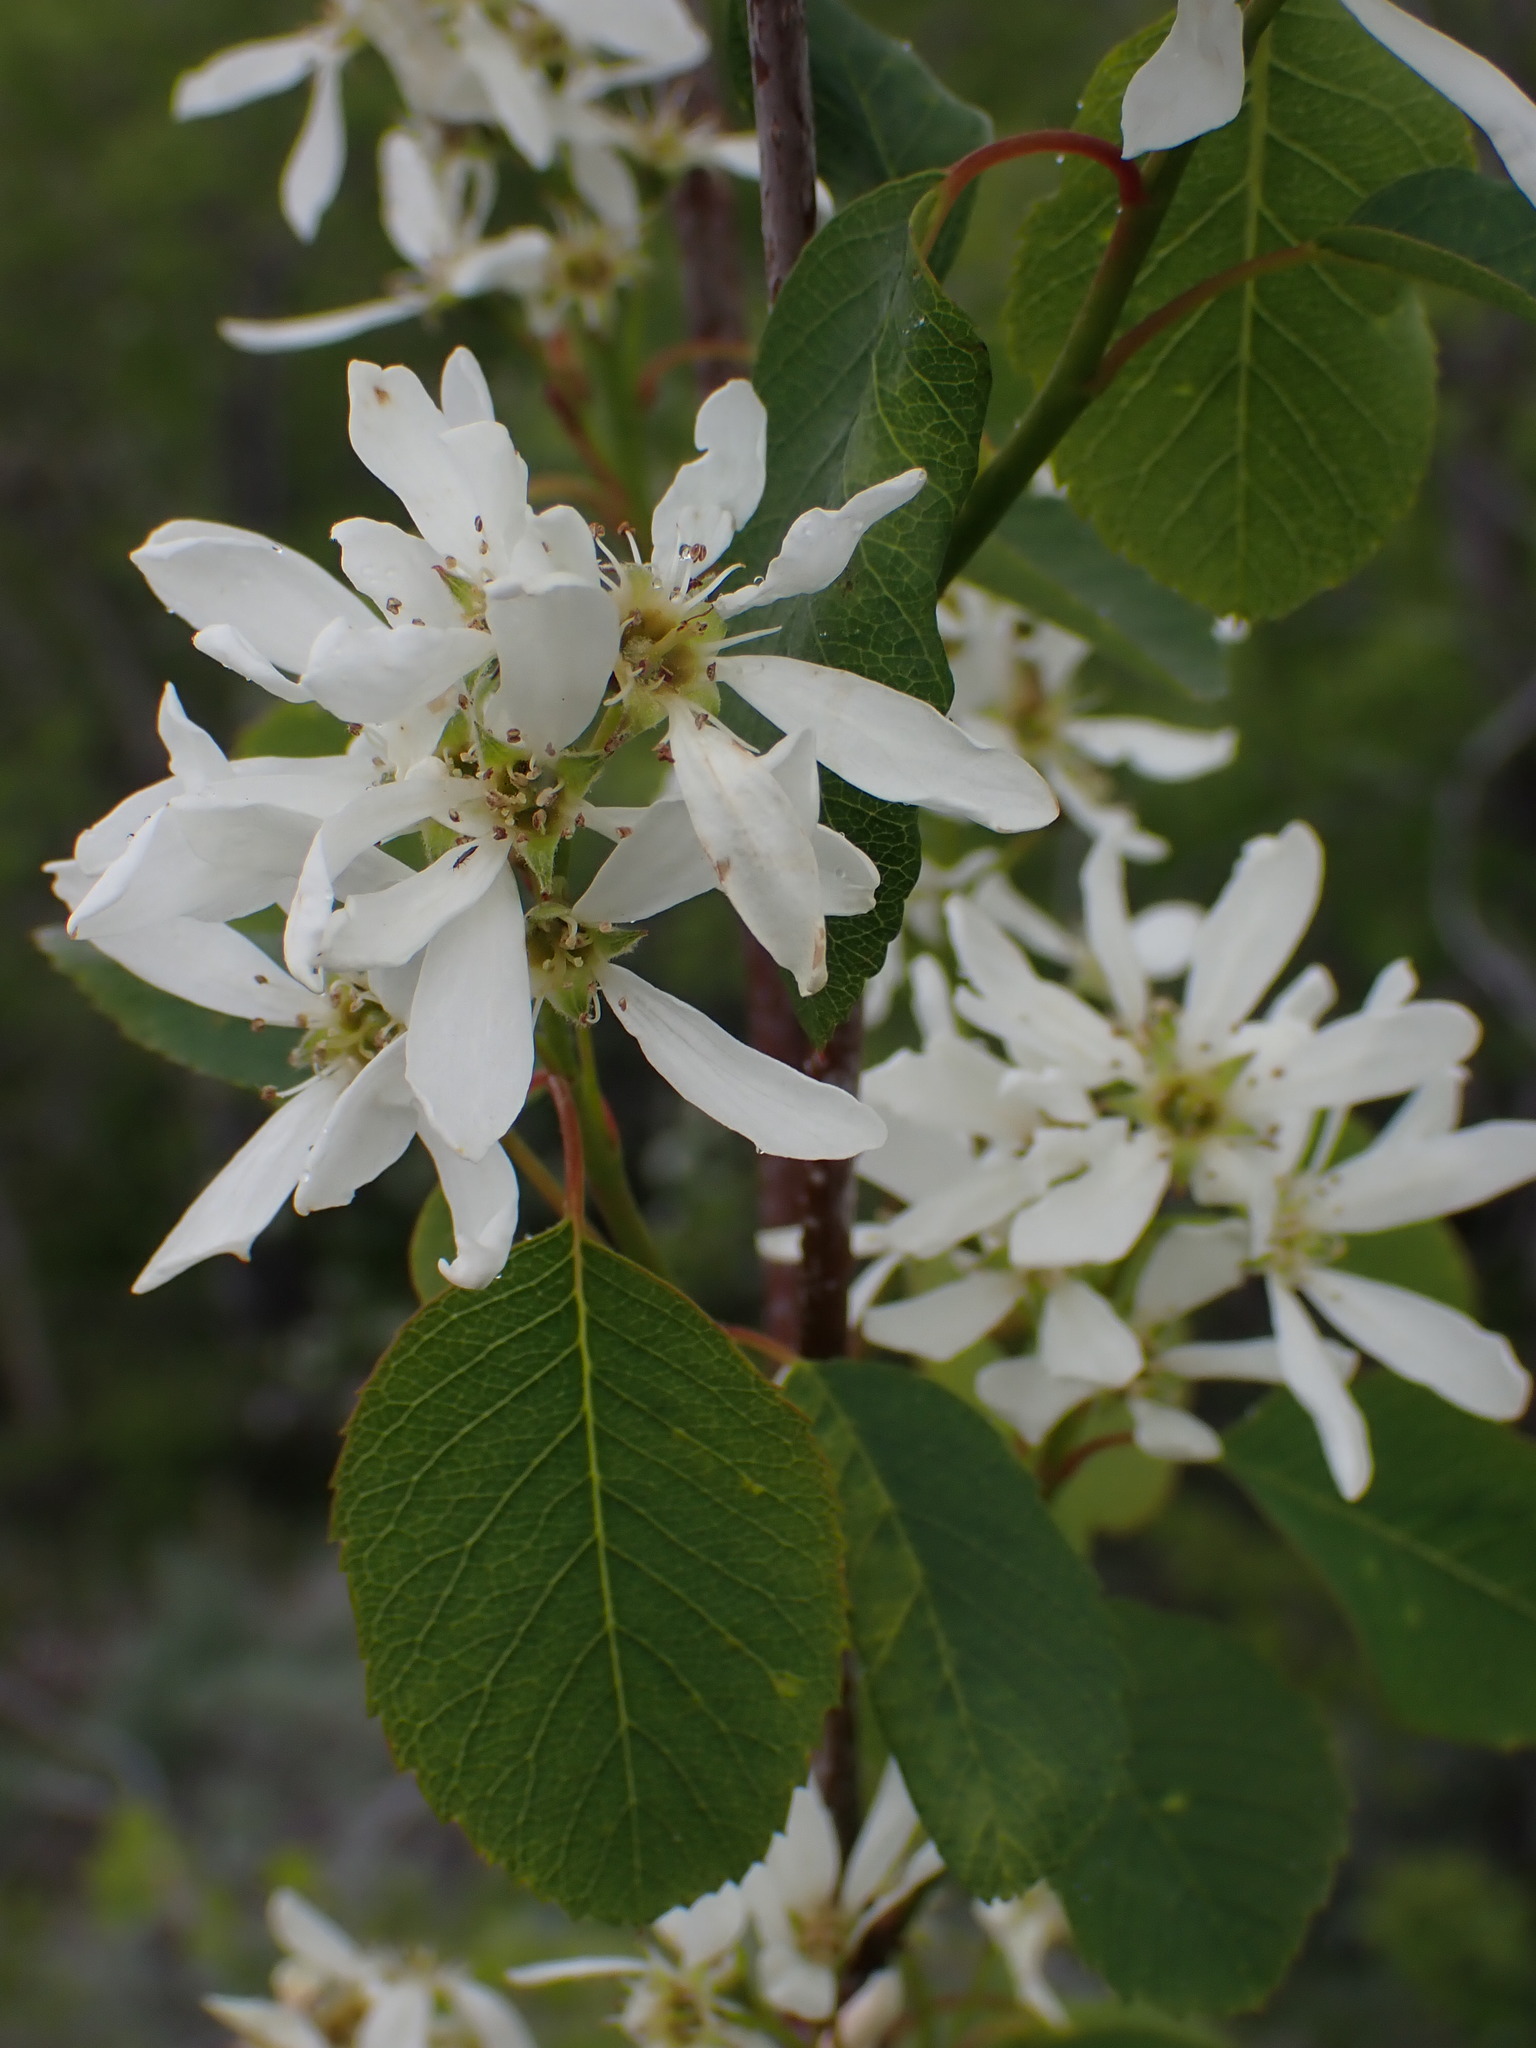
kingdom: Plantae
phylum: Tracheophyta
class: Magnoliopsida
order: Rosales
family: Rosaceae
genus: Amelanchier
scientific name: Amelanchier alnifolia
